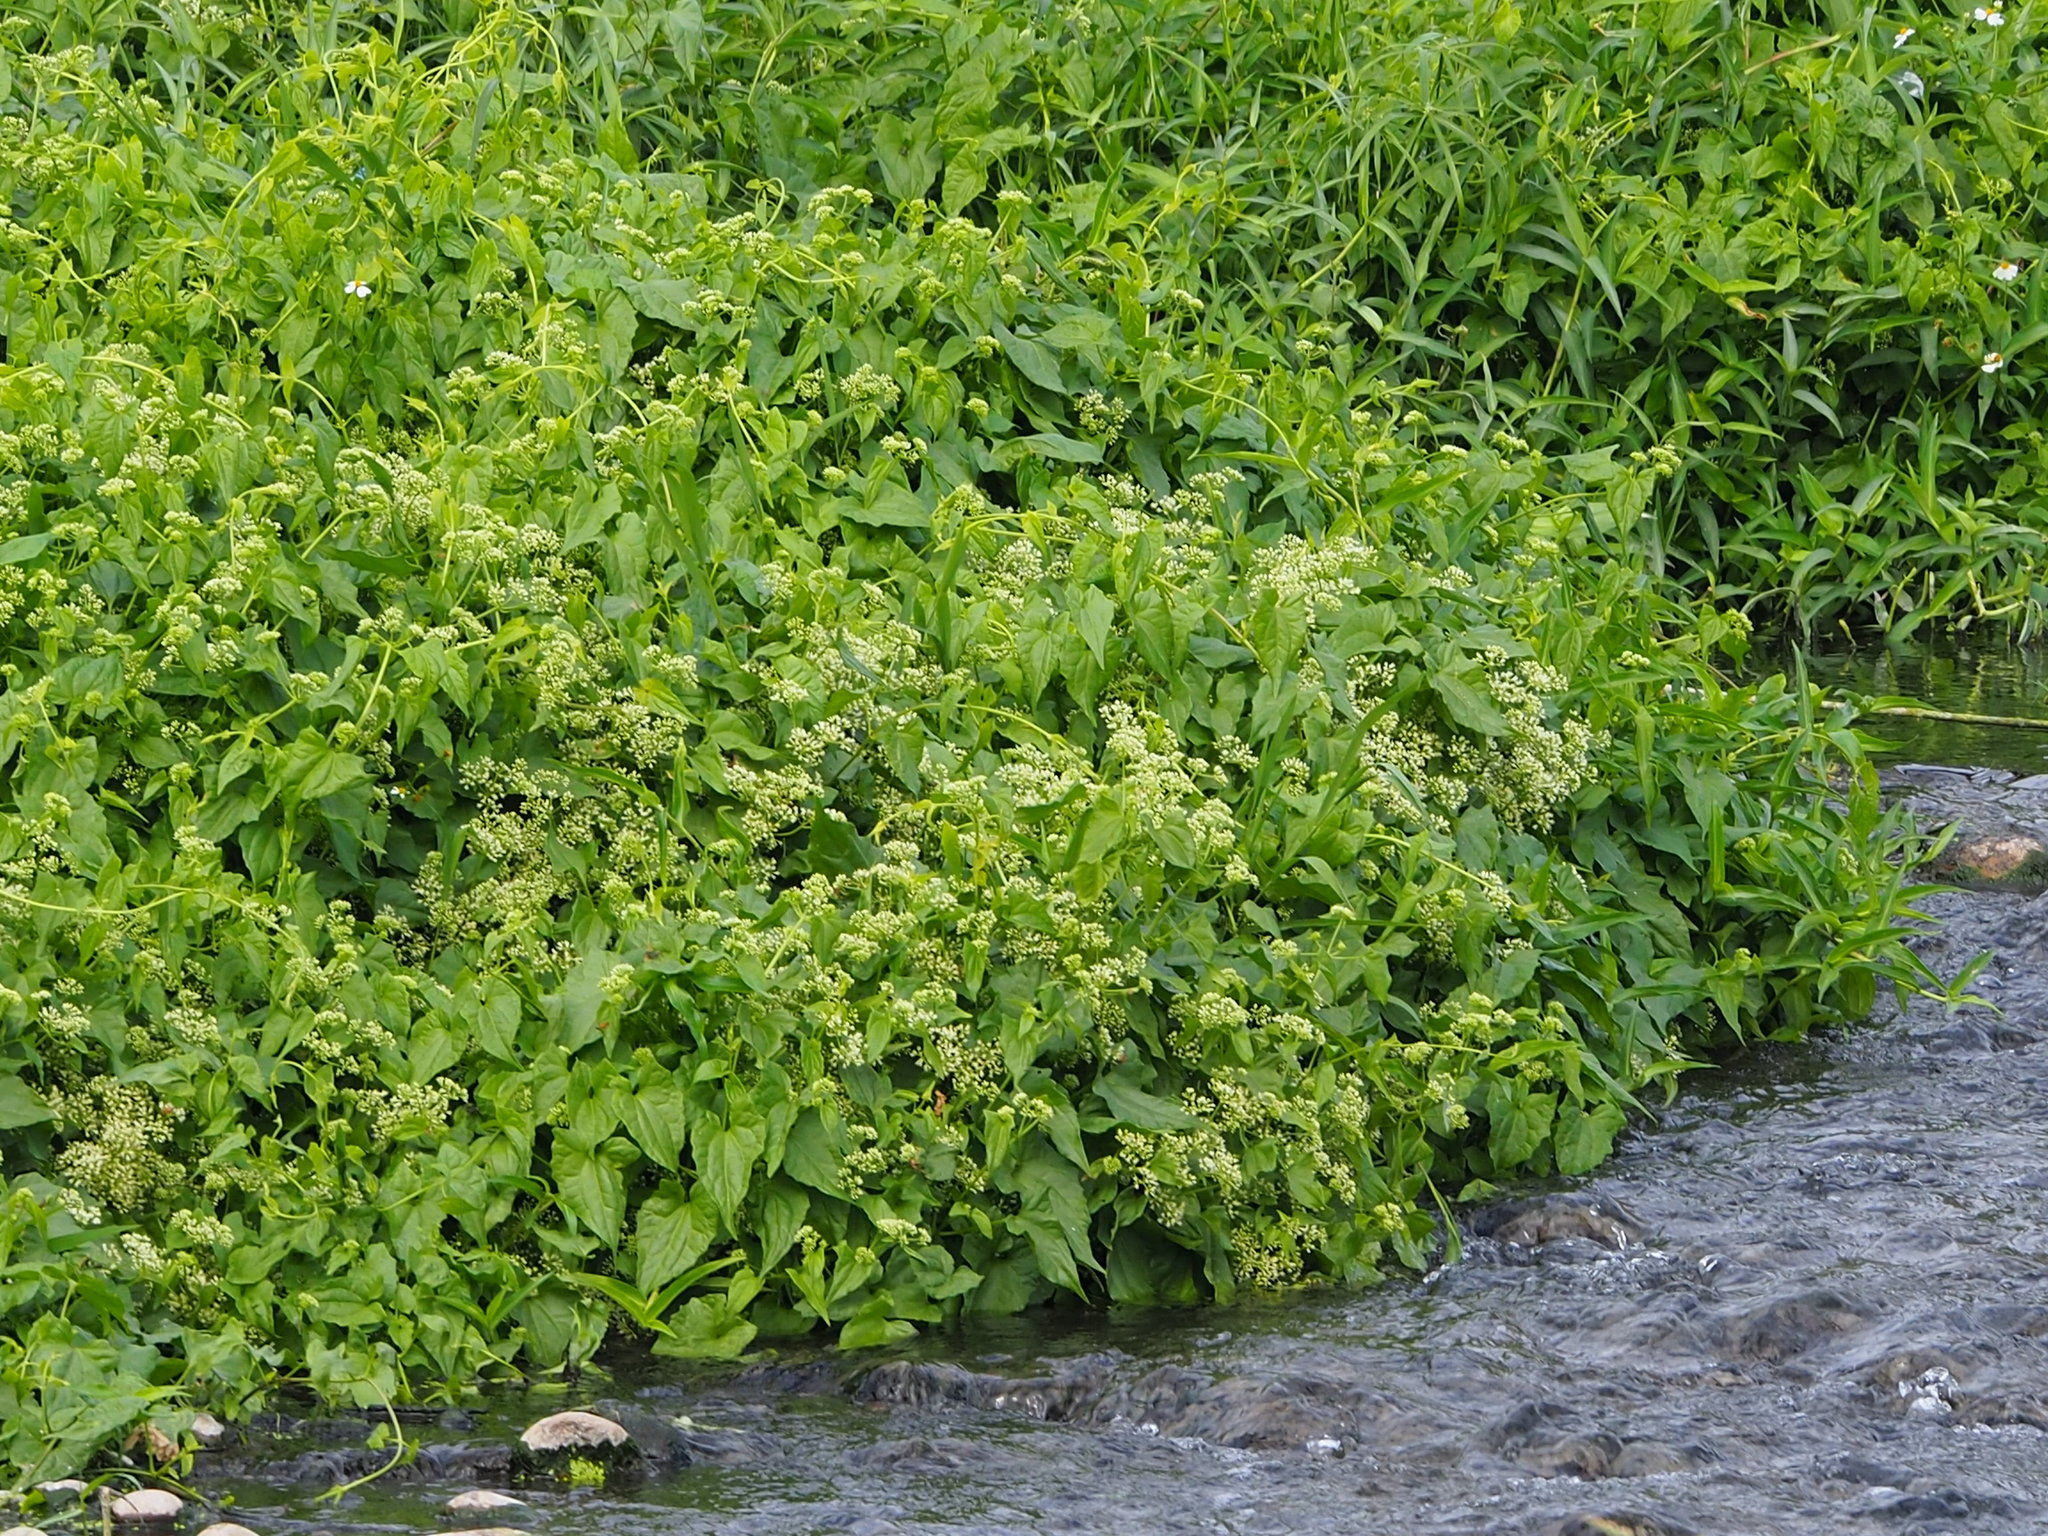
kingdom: Plantae
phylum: Tracheophyta
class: Magnoliopsida
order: Asterales
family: Asteraceae
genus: Mikania
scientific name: Mikania micrantha
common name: Mile-a-minute
